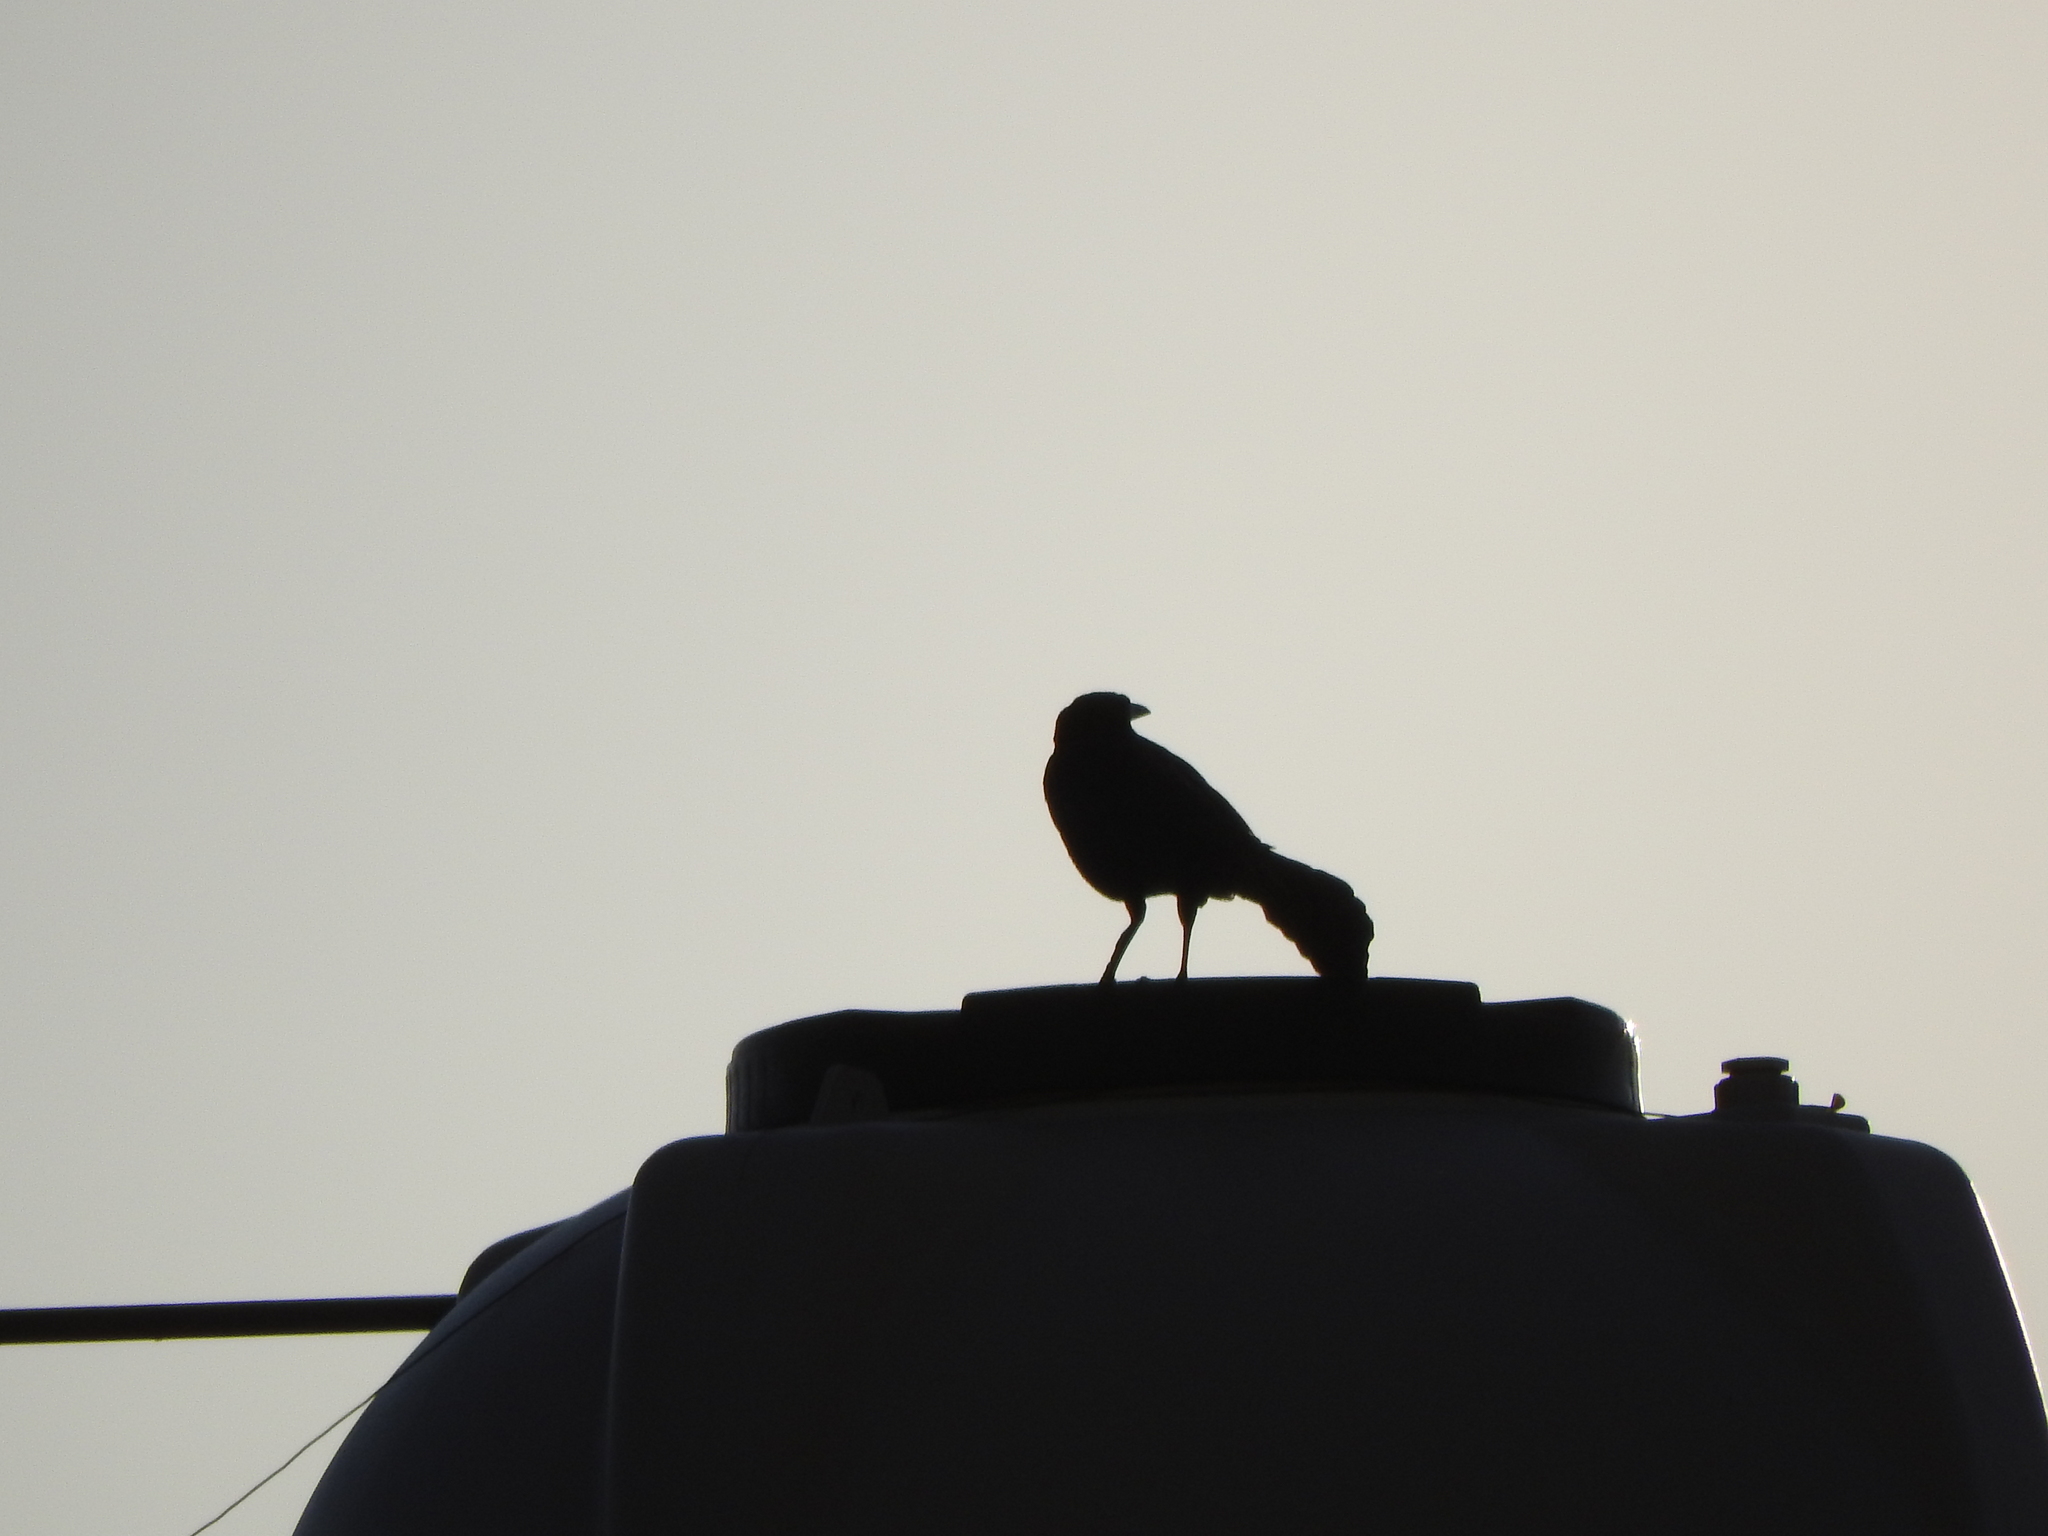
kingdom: Animalia
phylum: Chordata
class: Aves
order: Passeriformes
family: Icteridae
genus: Quiscalus
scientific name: Quiscalus mexicanus
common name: Great-tailed grackle
